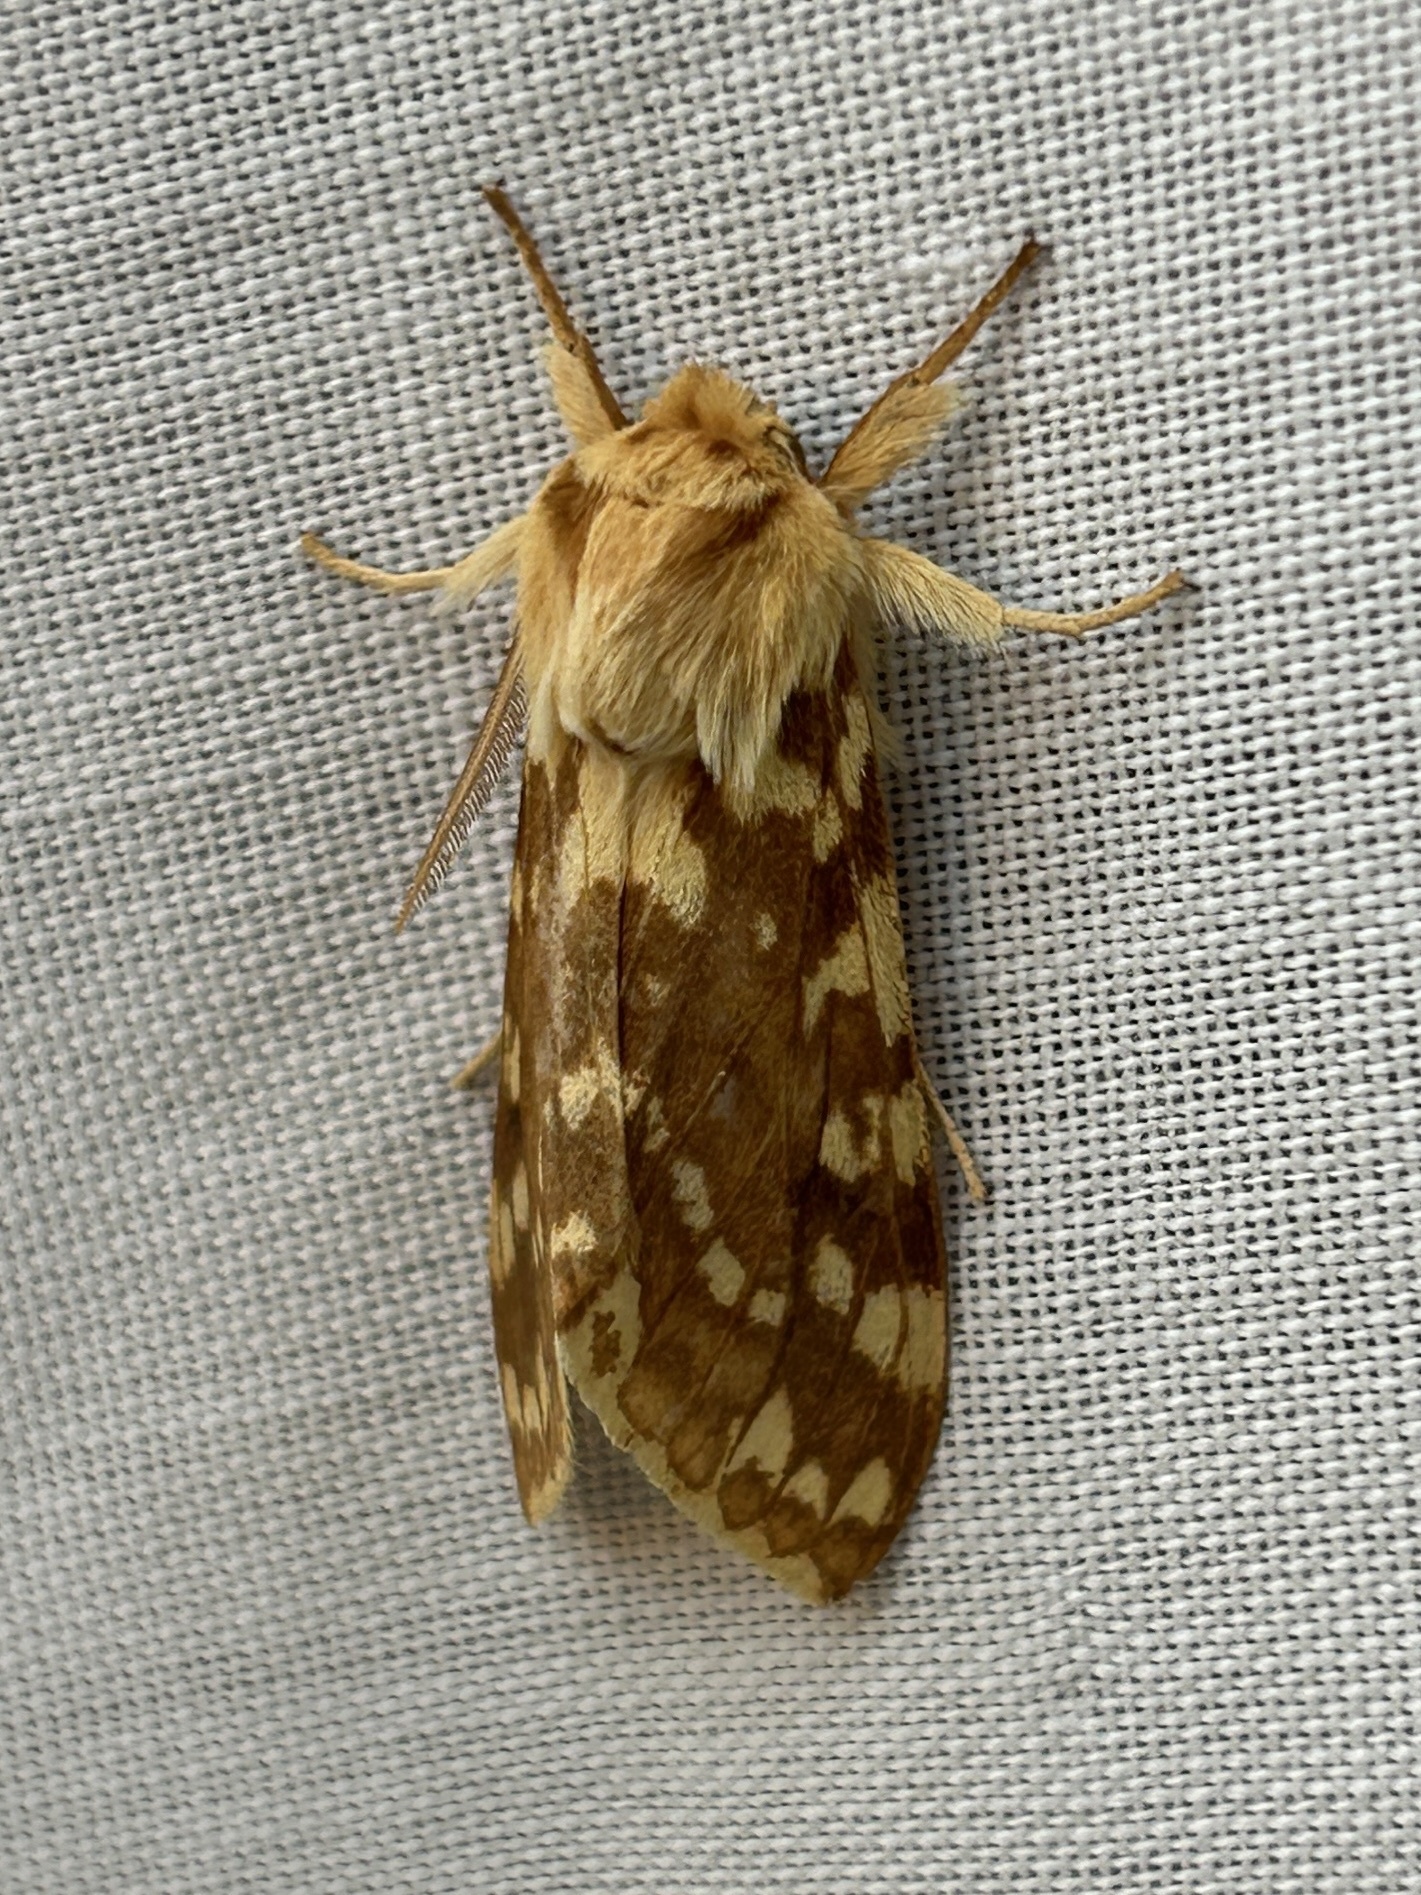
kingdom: Animalia
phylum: Arthropoda
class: Insecta
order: Lepidoptera
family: Erebidae
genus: Lophocampa
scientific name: Lophocampa maculata
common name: Spotted tussock moth
